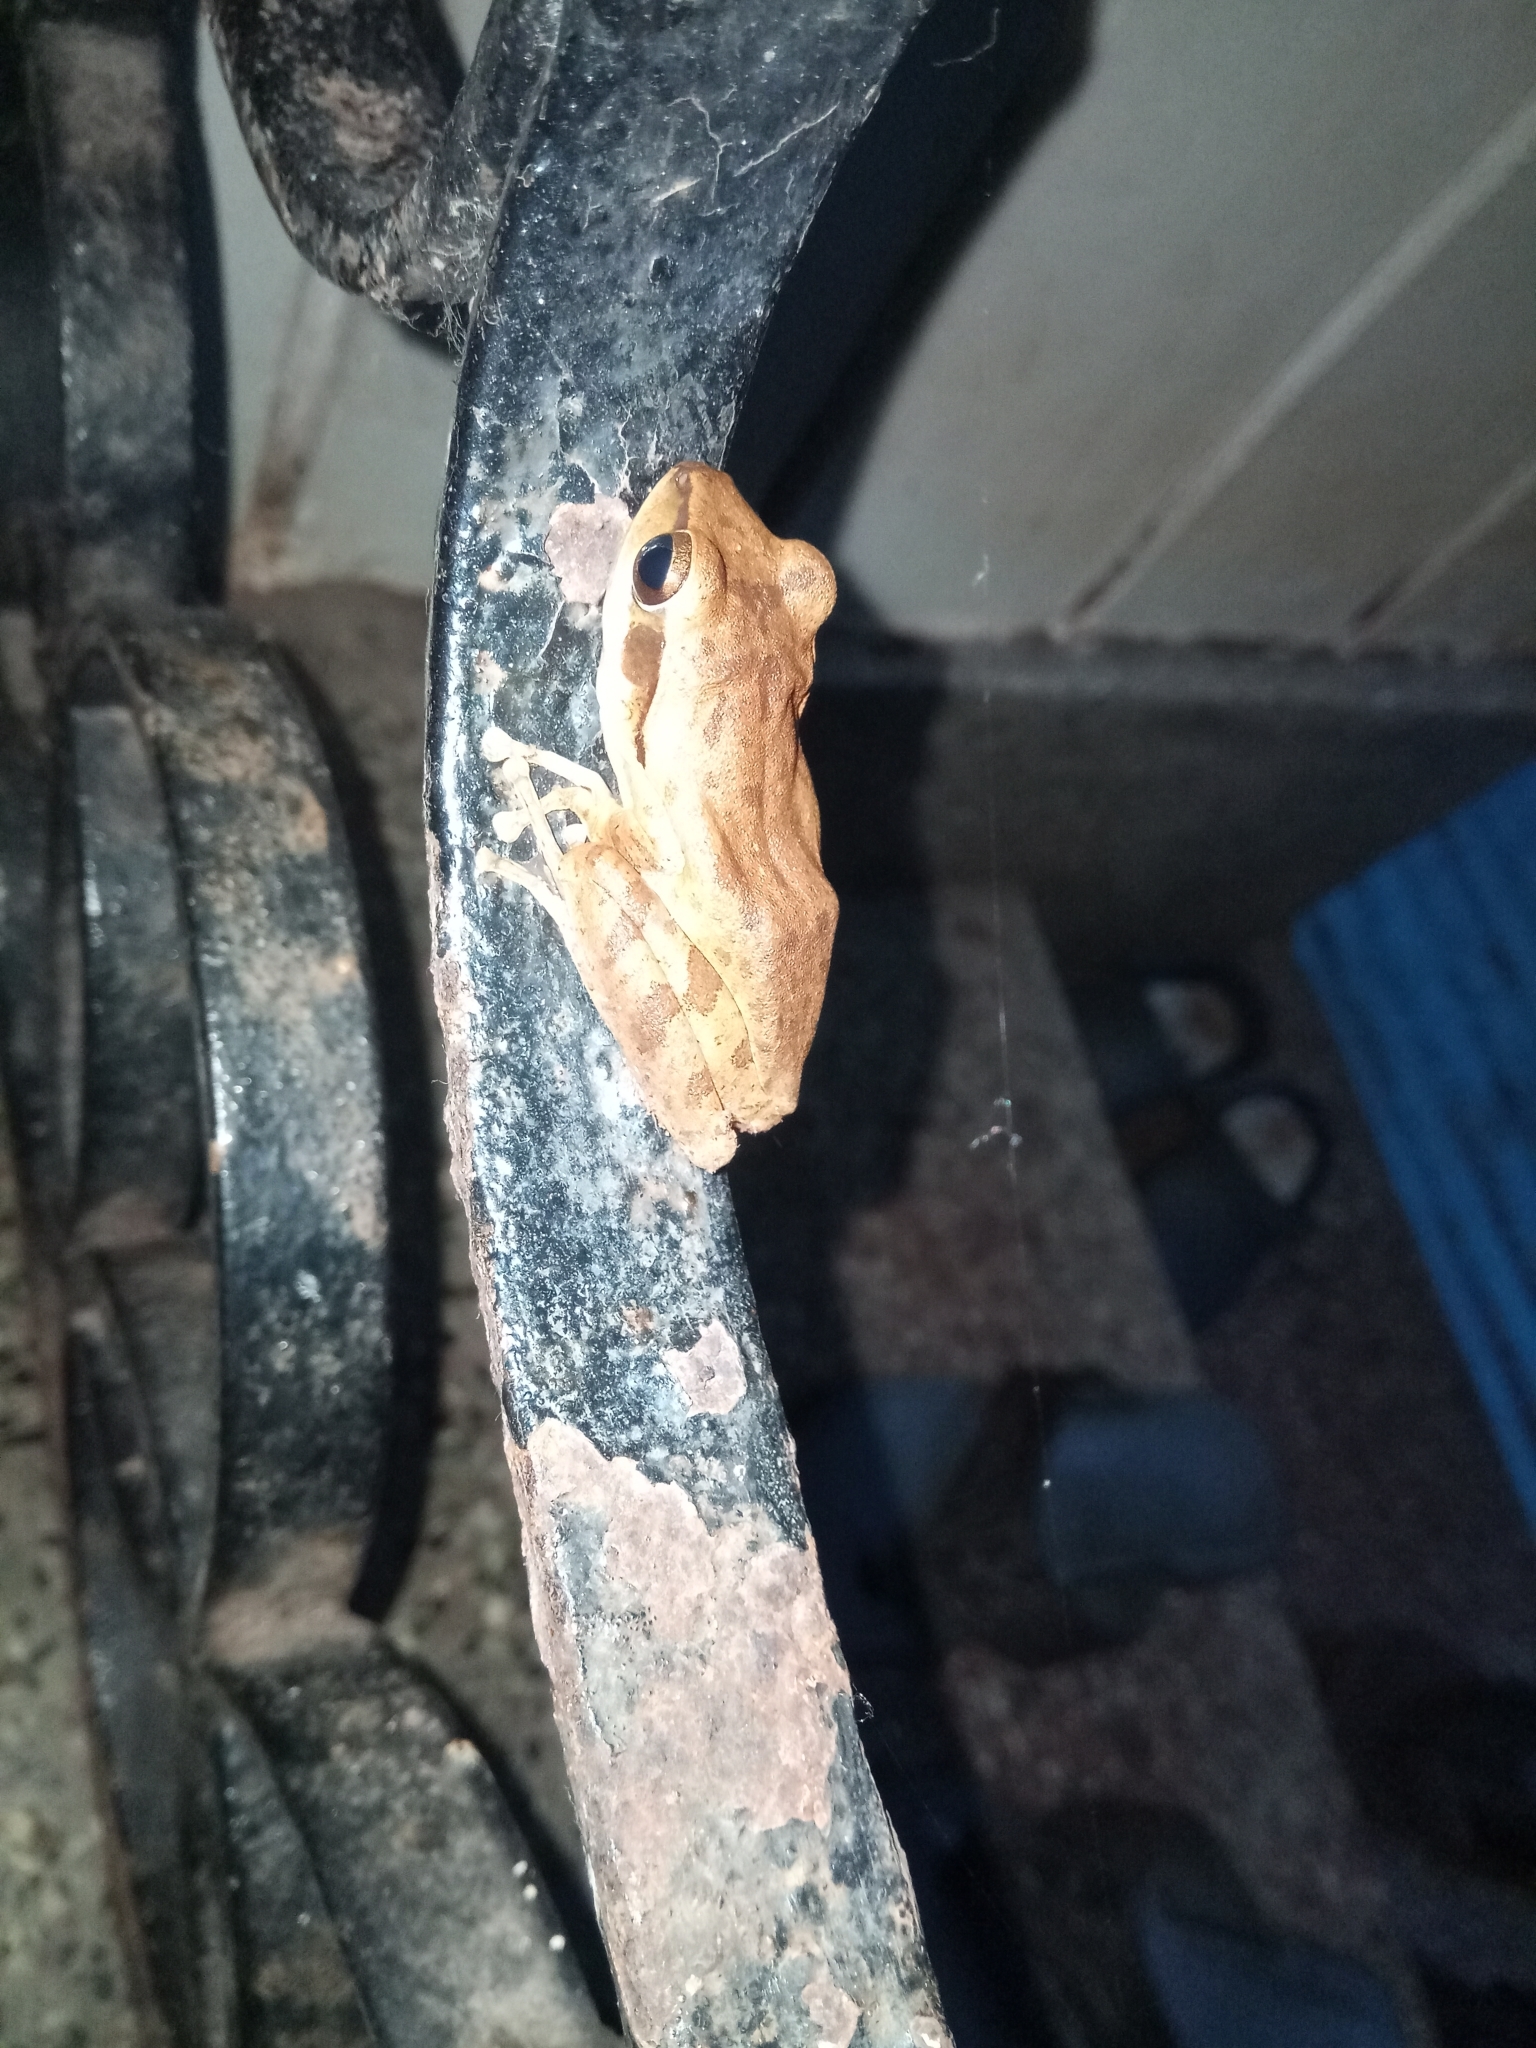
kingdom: Animalia
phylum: Chordata
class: Amphibia
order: Anura
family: Rhacophoridae
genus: Polypedates
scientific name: Polypedates maculatus
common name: Himalayan tree frog
